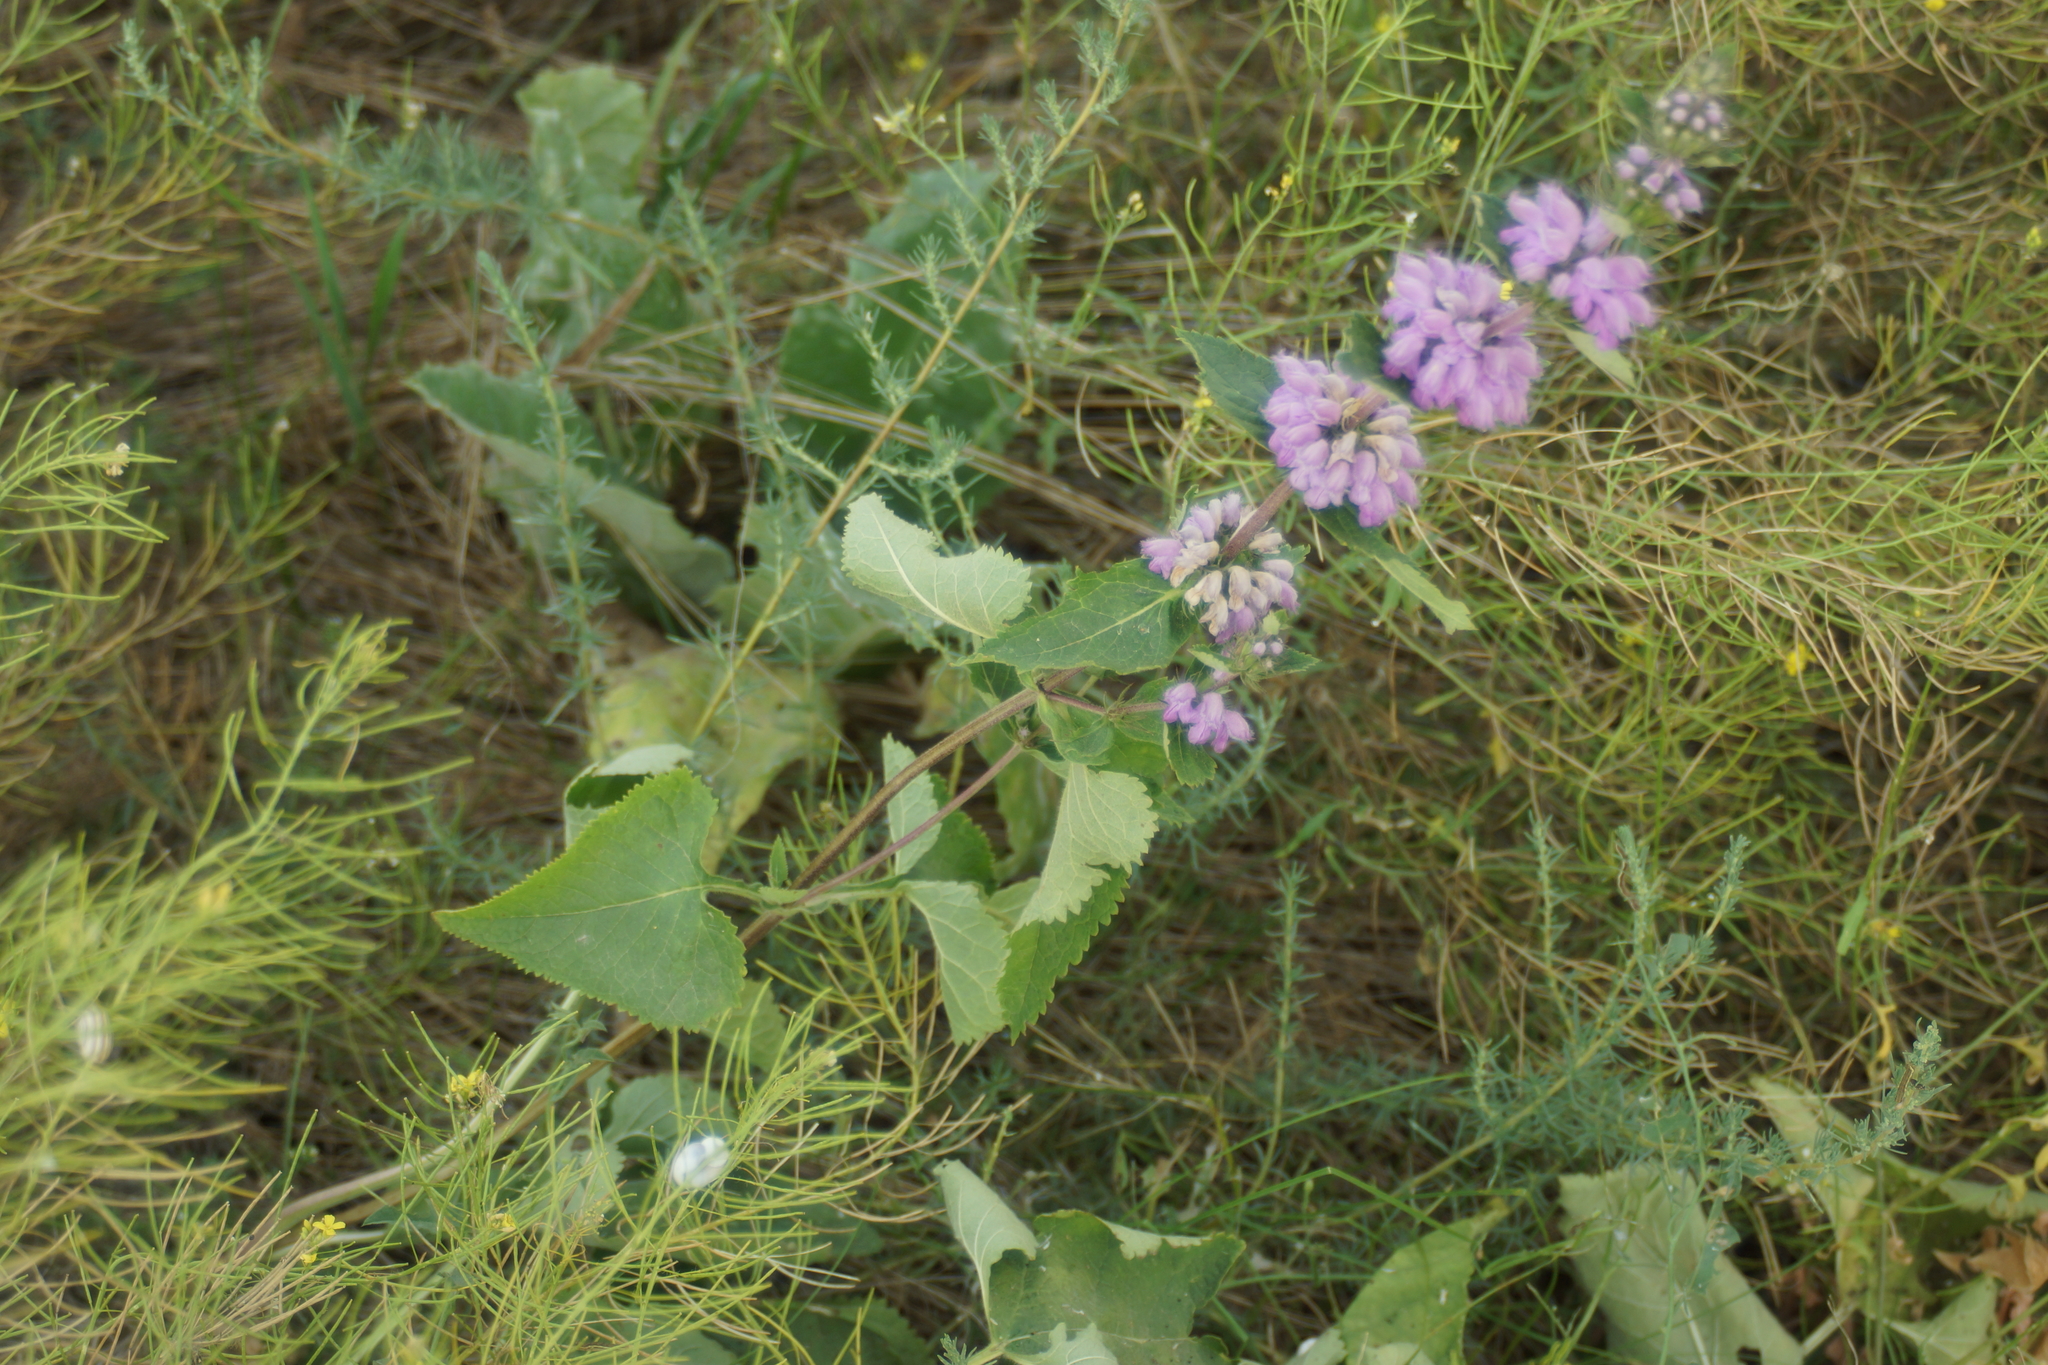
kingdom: Plantae
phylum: Tracheophyta
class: Magnoliopsida
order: Lamiales
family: Lamiaceae
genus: Phlomoides
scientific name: Phlomoides tuberosa
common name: Tuberous jerusalem sage
